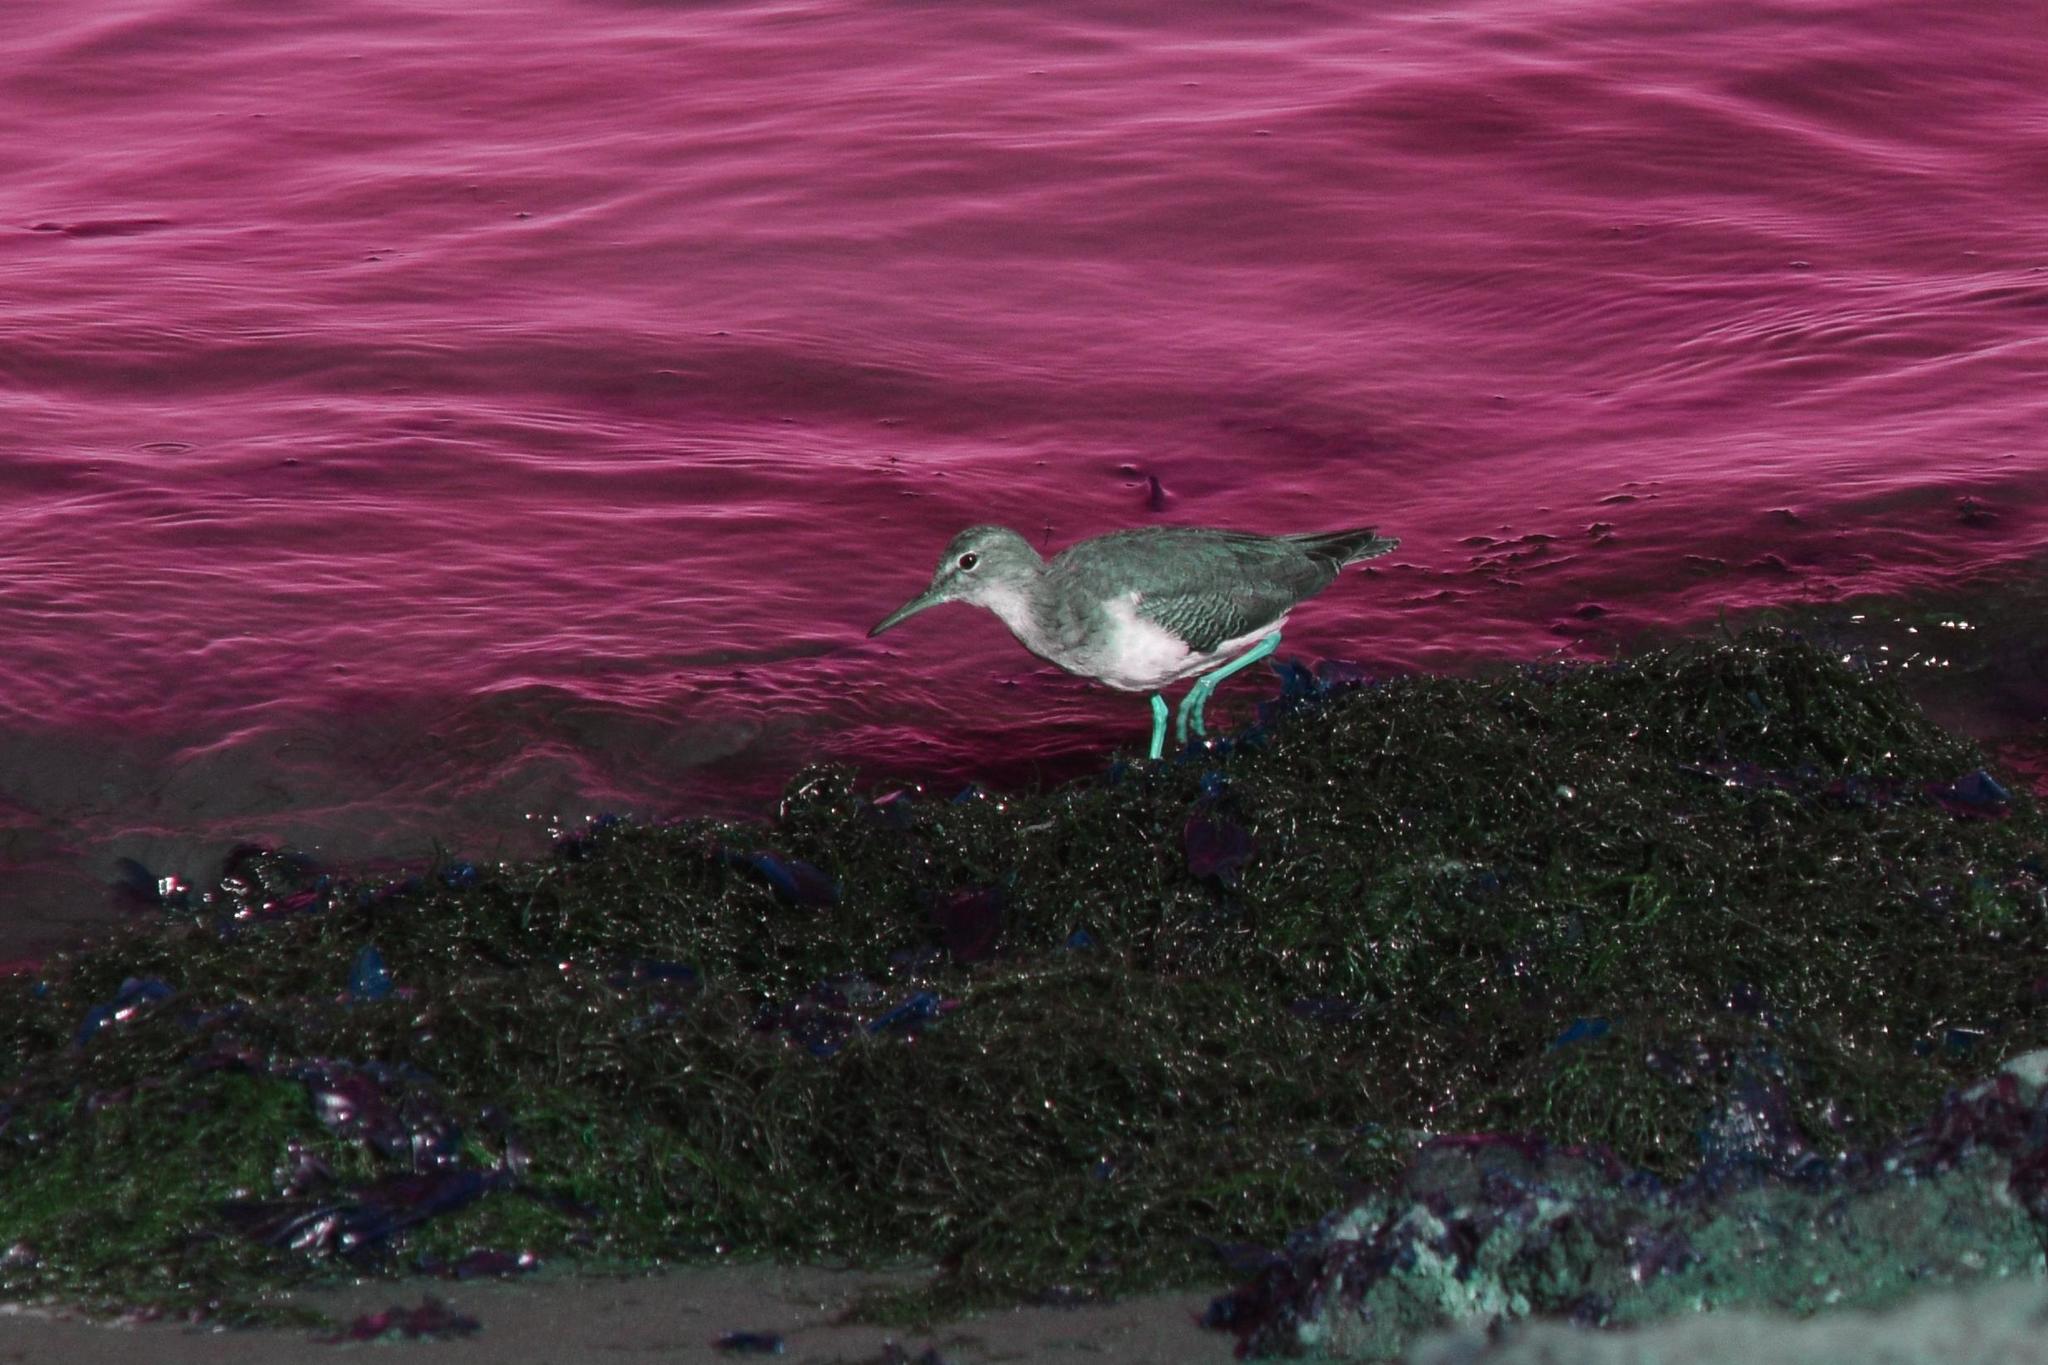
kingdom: Animalia
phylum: Chordata
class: Aves
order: Charadriiformes
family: Scolopacidae
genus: Actitis
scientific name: Actitis macularius
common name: Spotted sandpiper
